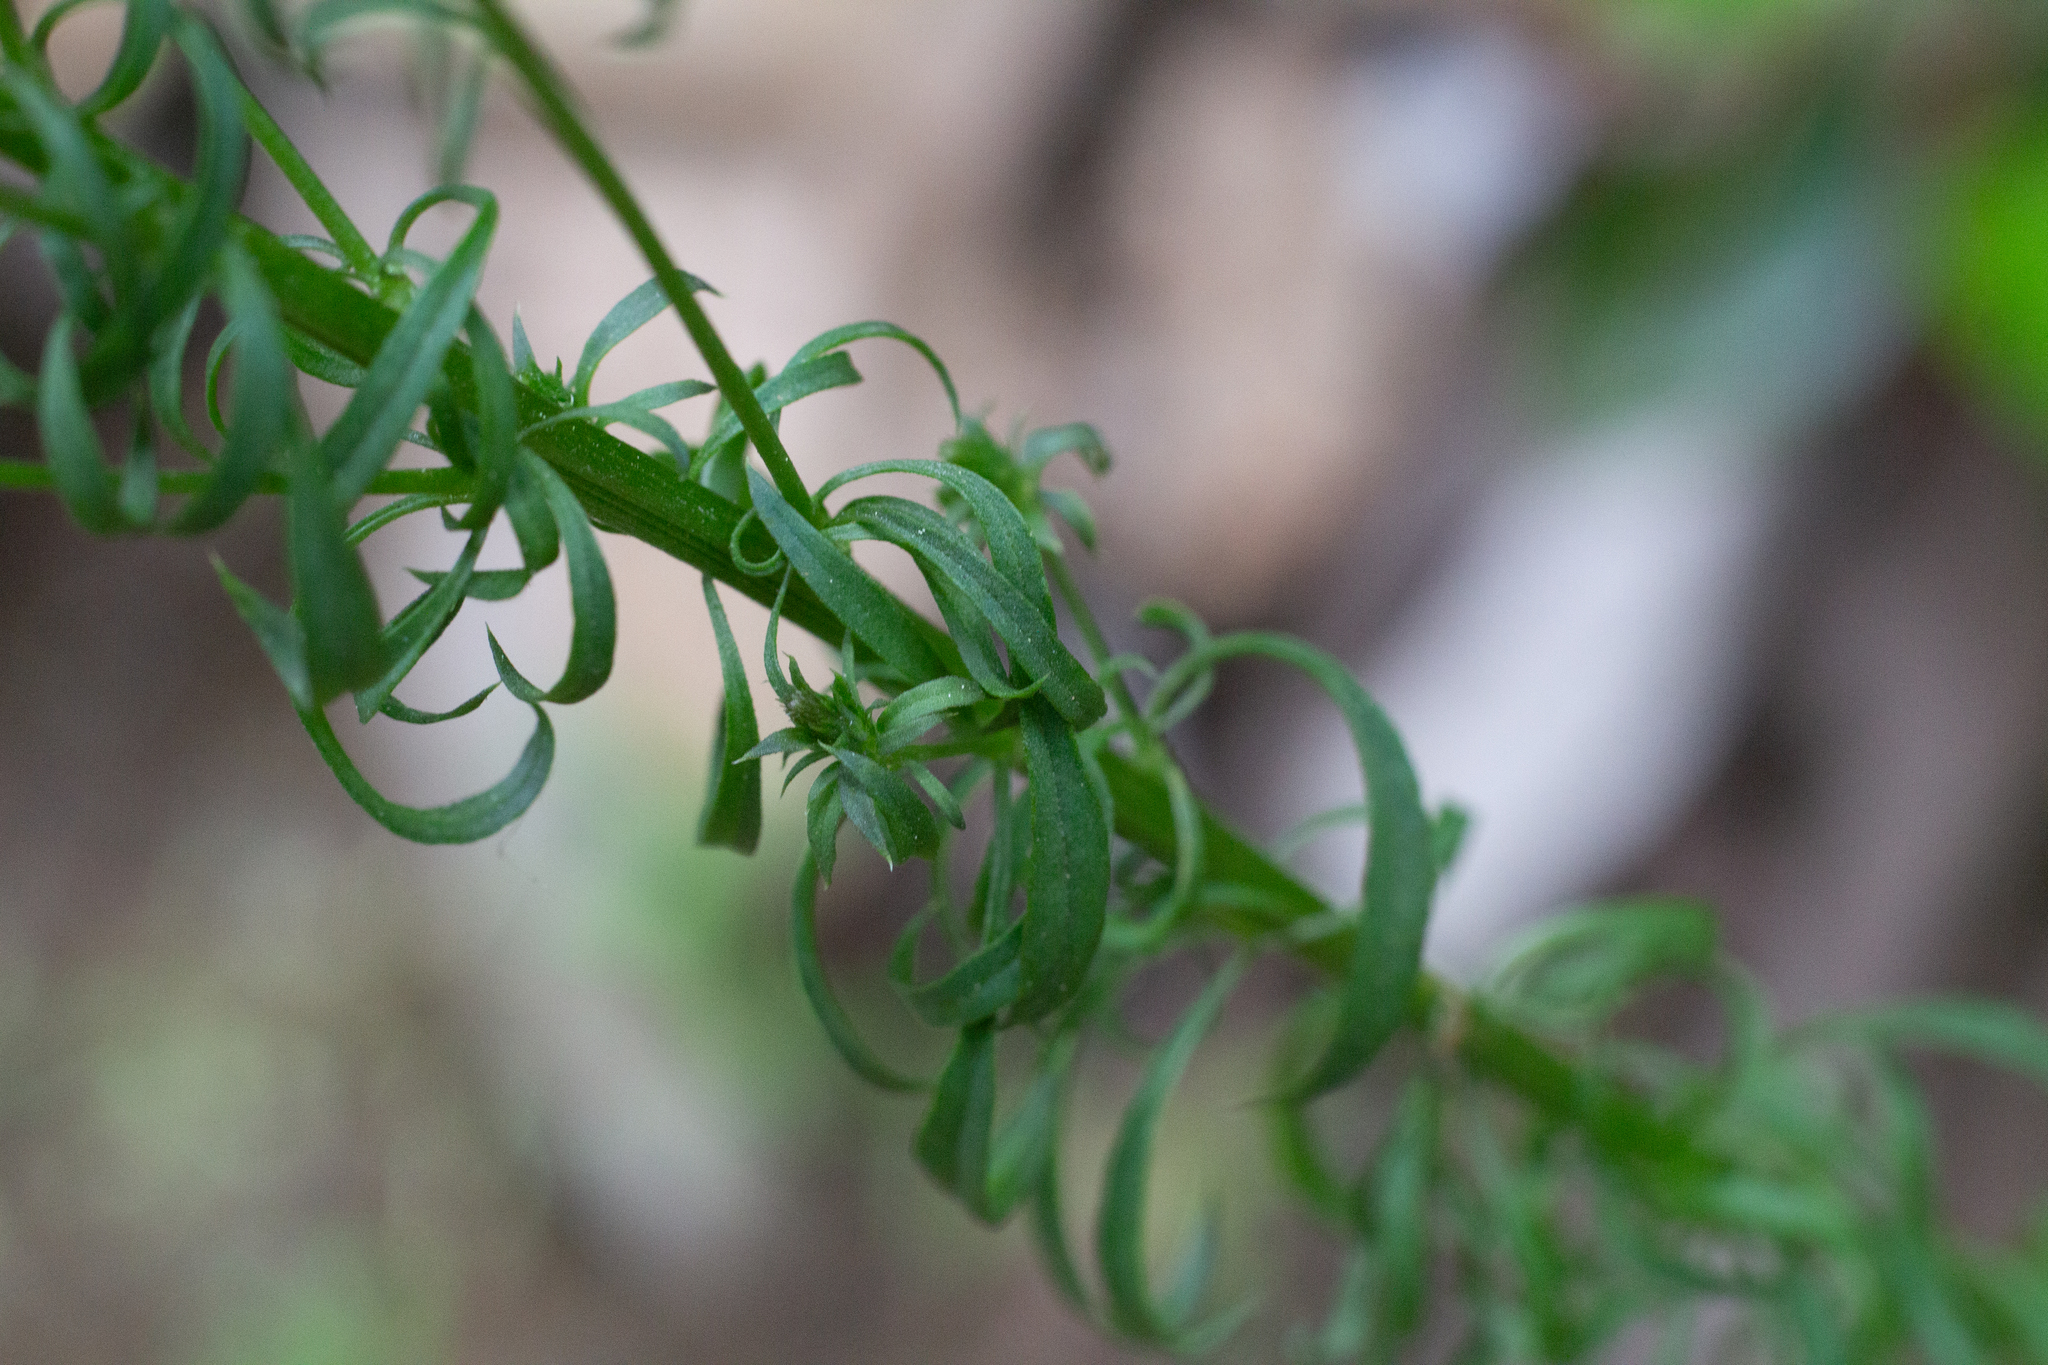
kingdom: Plantae
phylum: Tracheophyta
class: Magnoliopsida
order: Lamiales
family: Plantaginaceae
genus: Anarrhinum
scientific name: Anarrhinum bellidifolium
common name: Daisy-leaved toadflax
